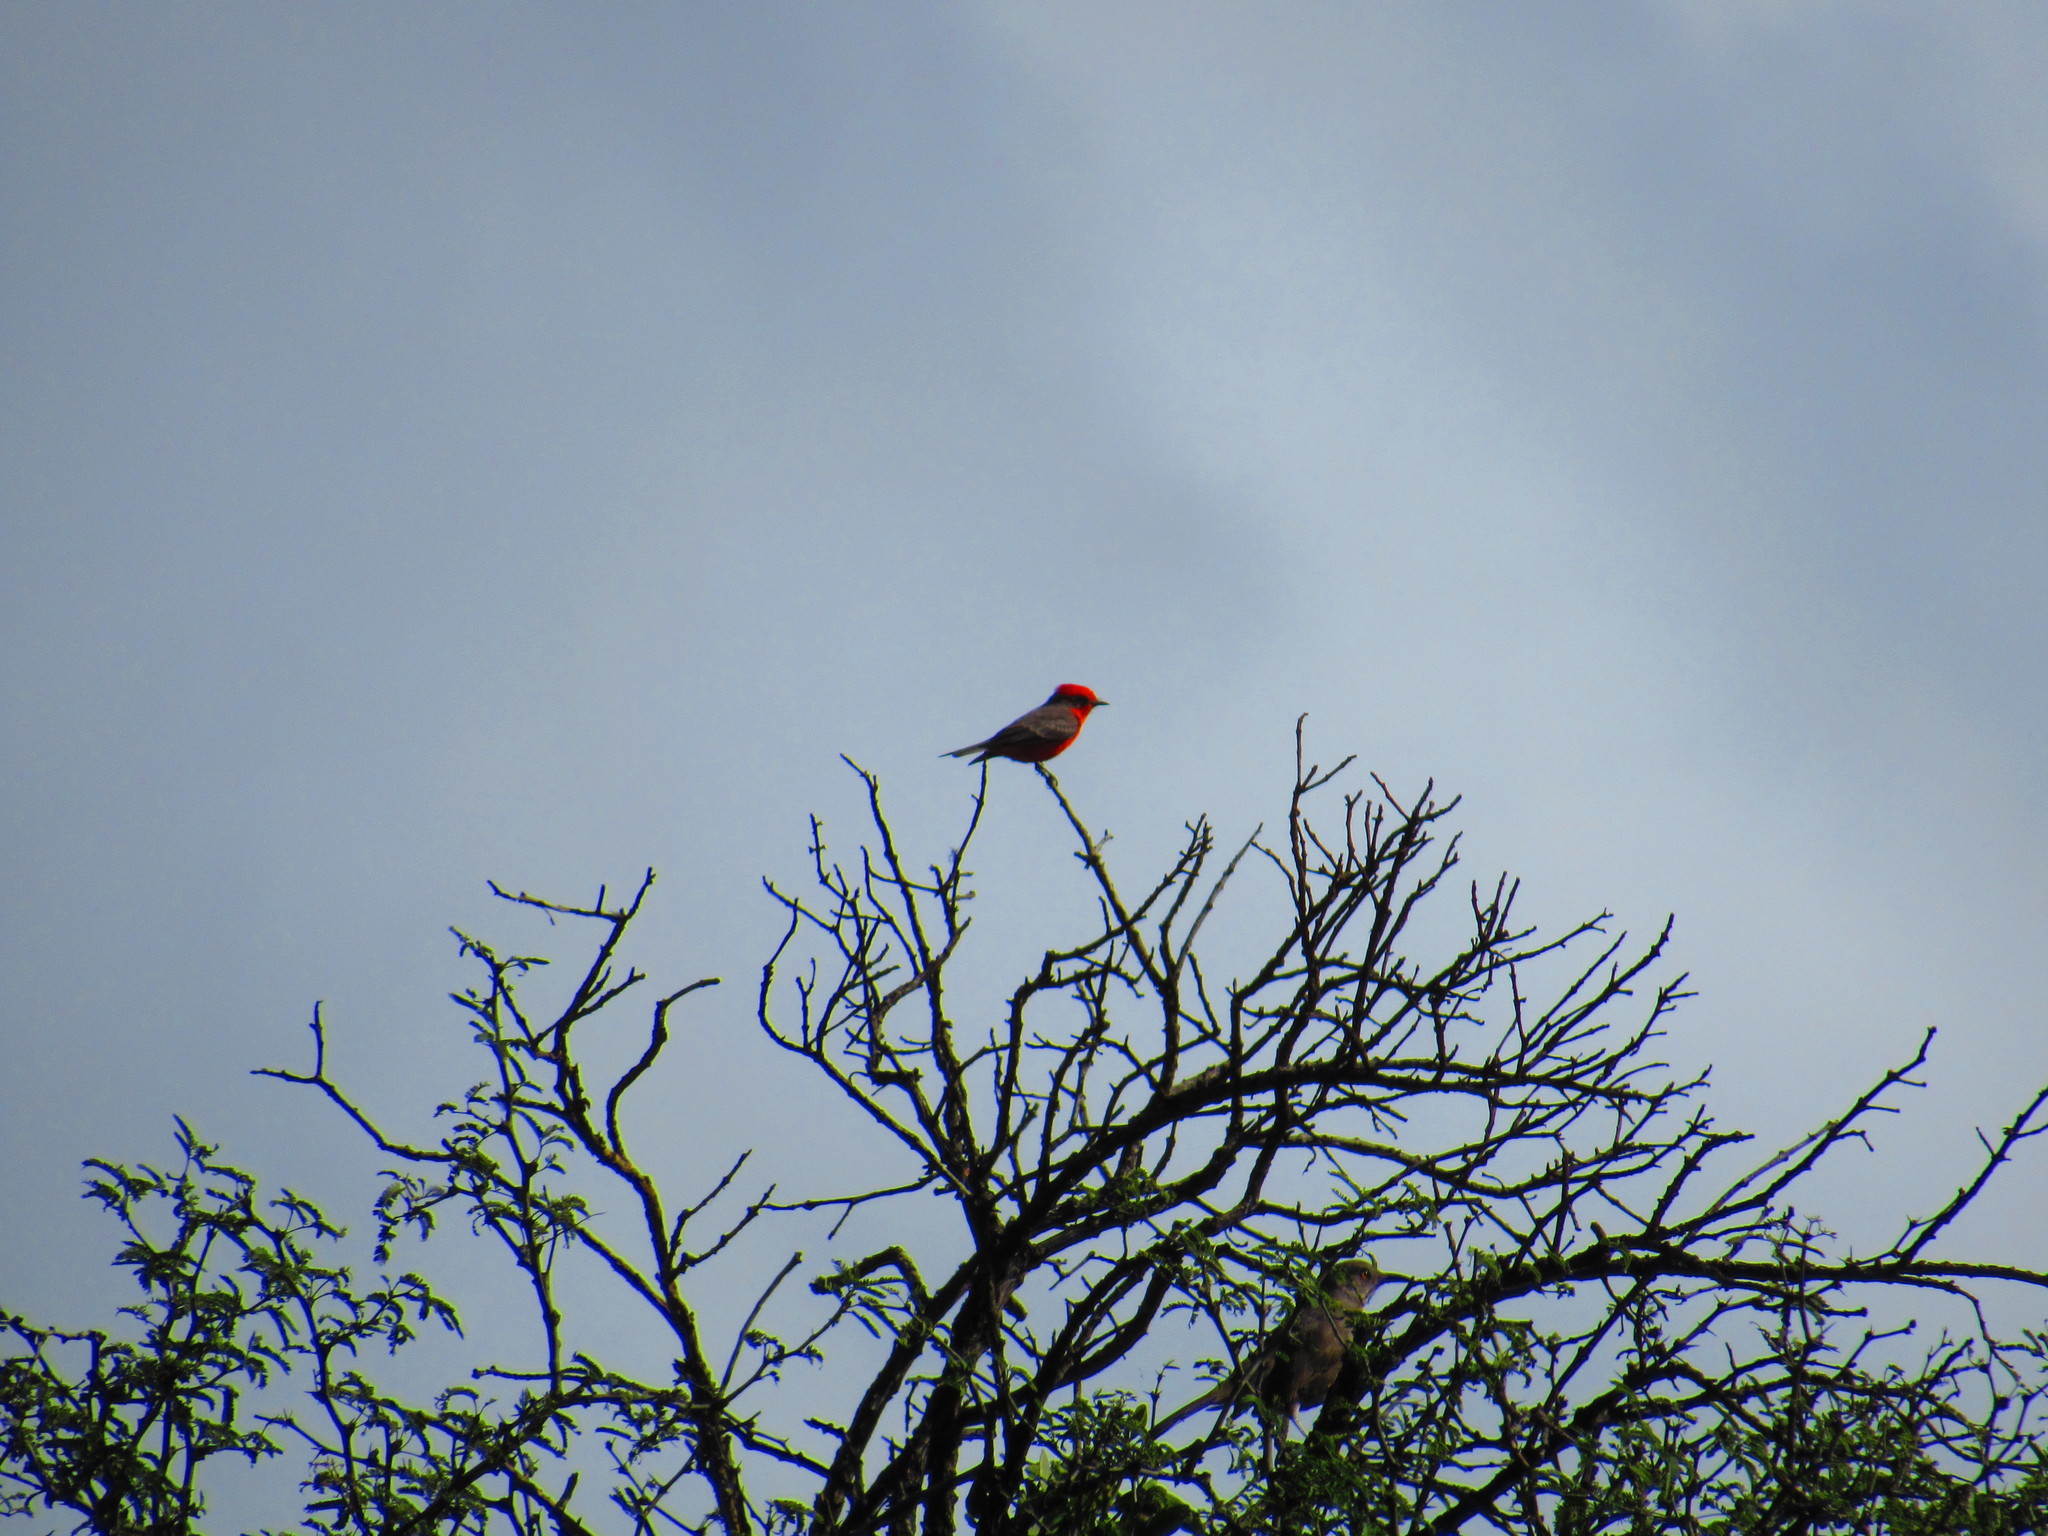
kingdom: Animalia
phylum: Chordata
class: Aves
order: Passeriformes
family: Tyrannidae
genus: Pyrocephalus
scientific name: Pyrocephalus rubinus
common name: Vermilion flycatcher
